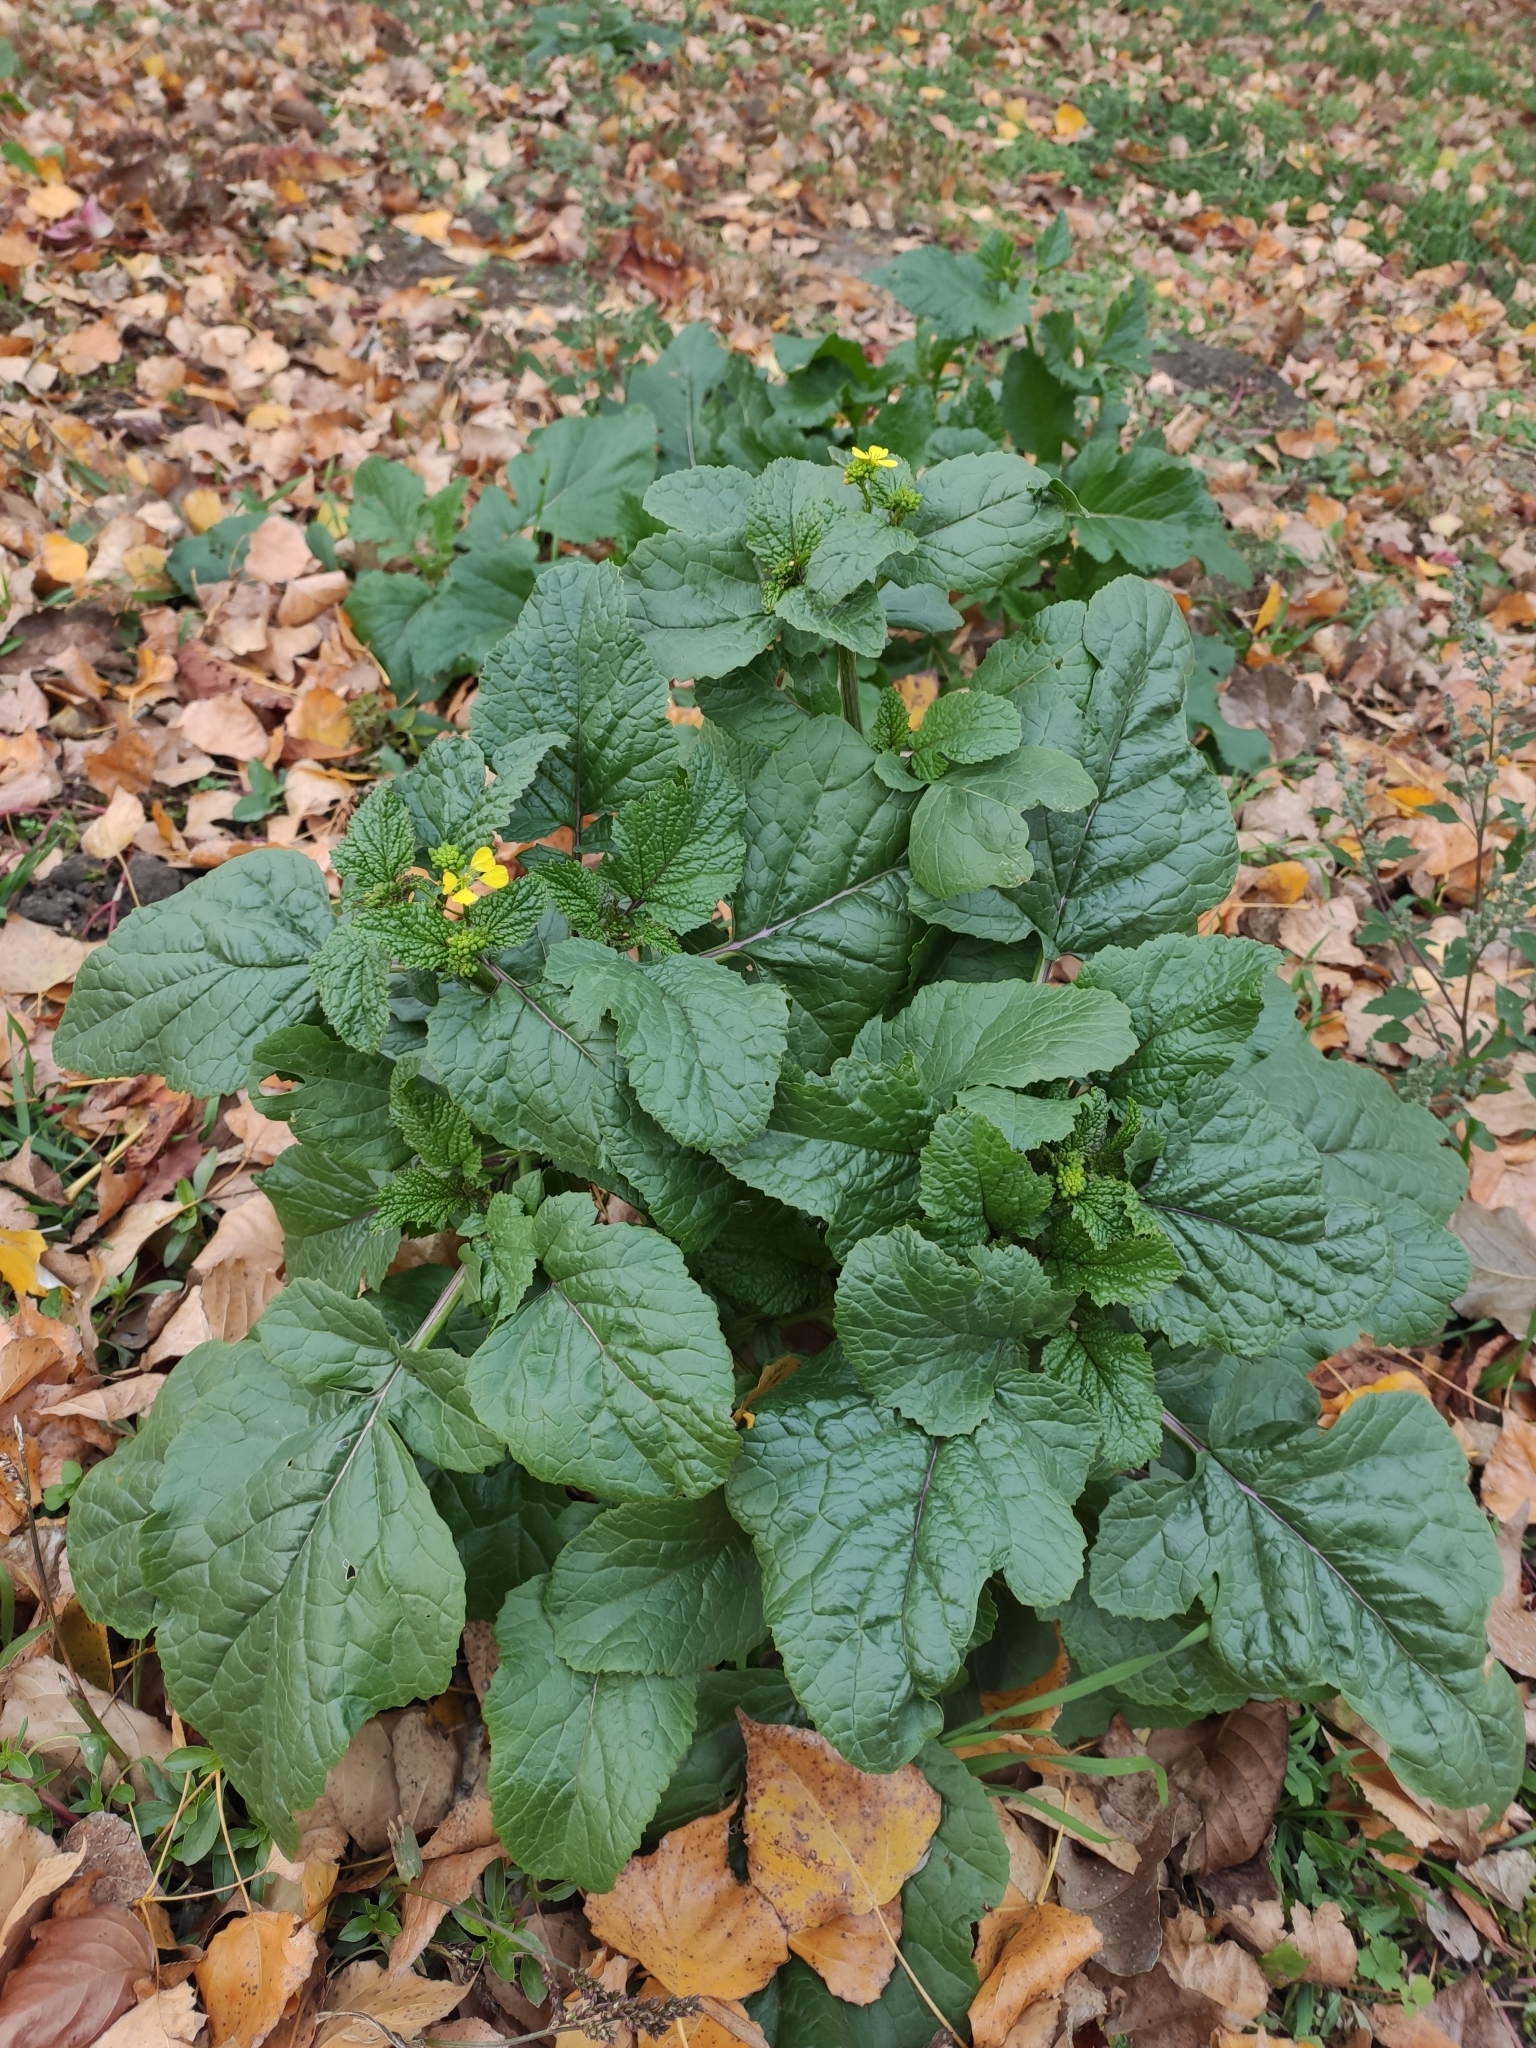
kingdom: Plantae
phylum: Tracheophyta
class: Magnoliopsida
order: Brassicales
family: Brassicaceae
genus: Sinapis
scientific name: Sinapis arvensis
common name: Charlock
